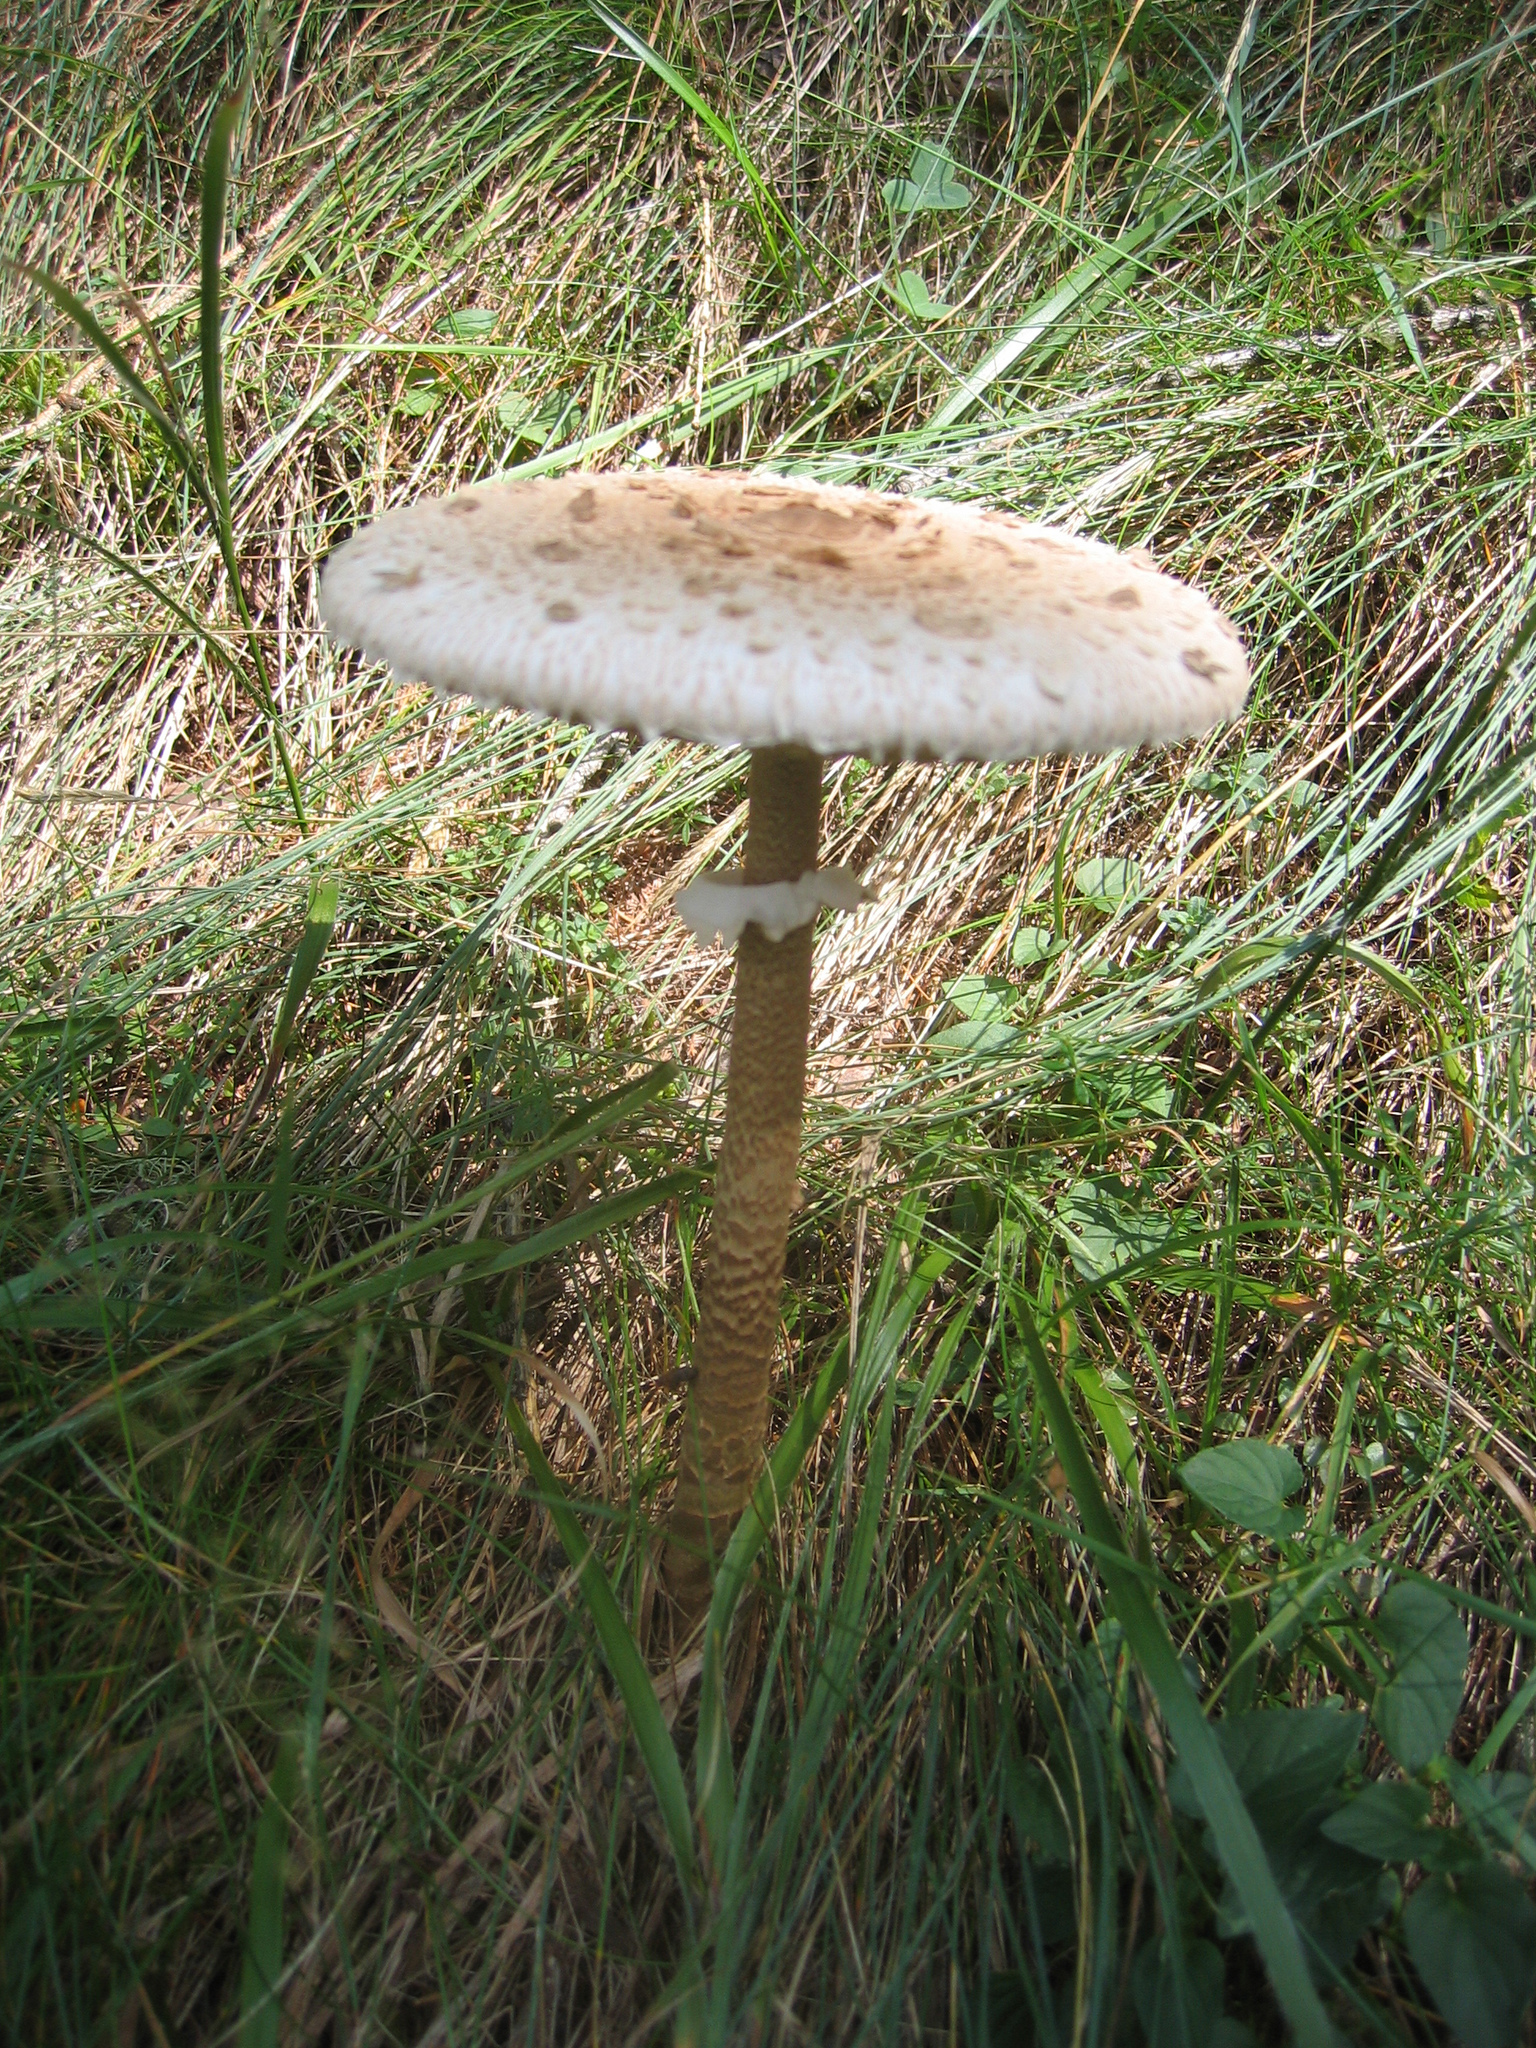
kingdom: Fungi
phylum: Basidiomycota
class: Agaricomycetes
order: Agaricales
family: Agaricaceae
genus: Macrolepiota
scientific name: Macrolepiota procera
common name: Parasol
